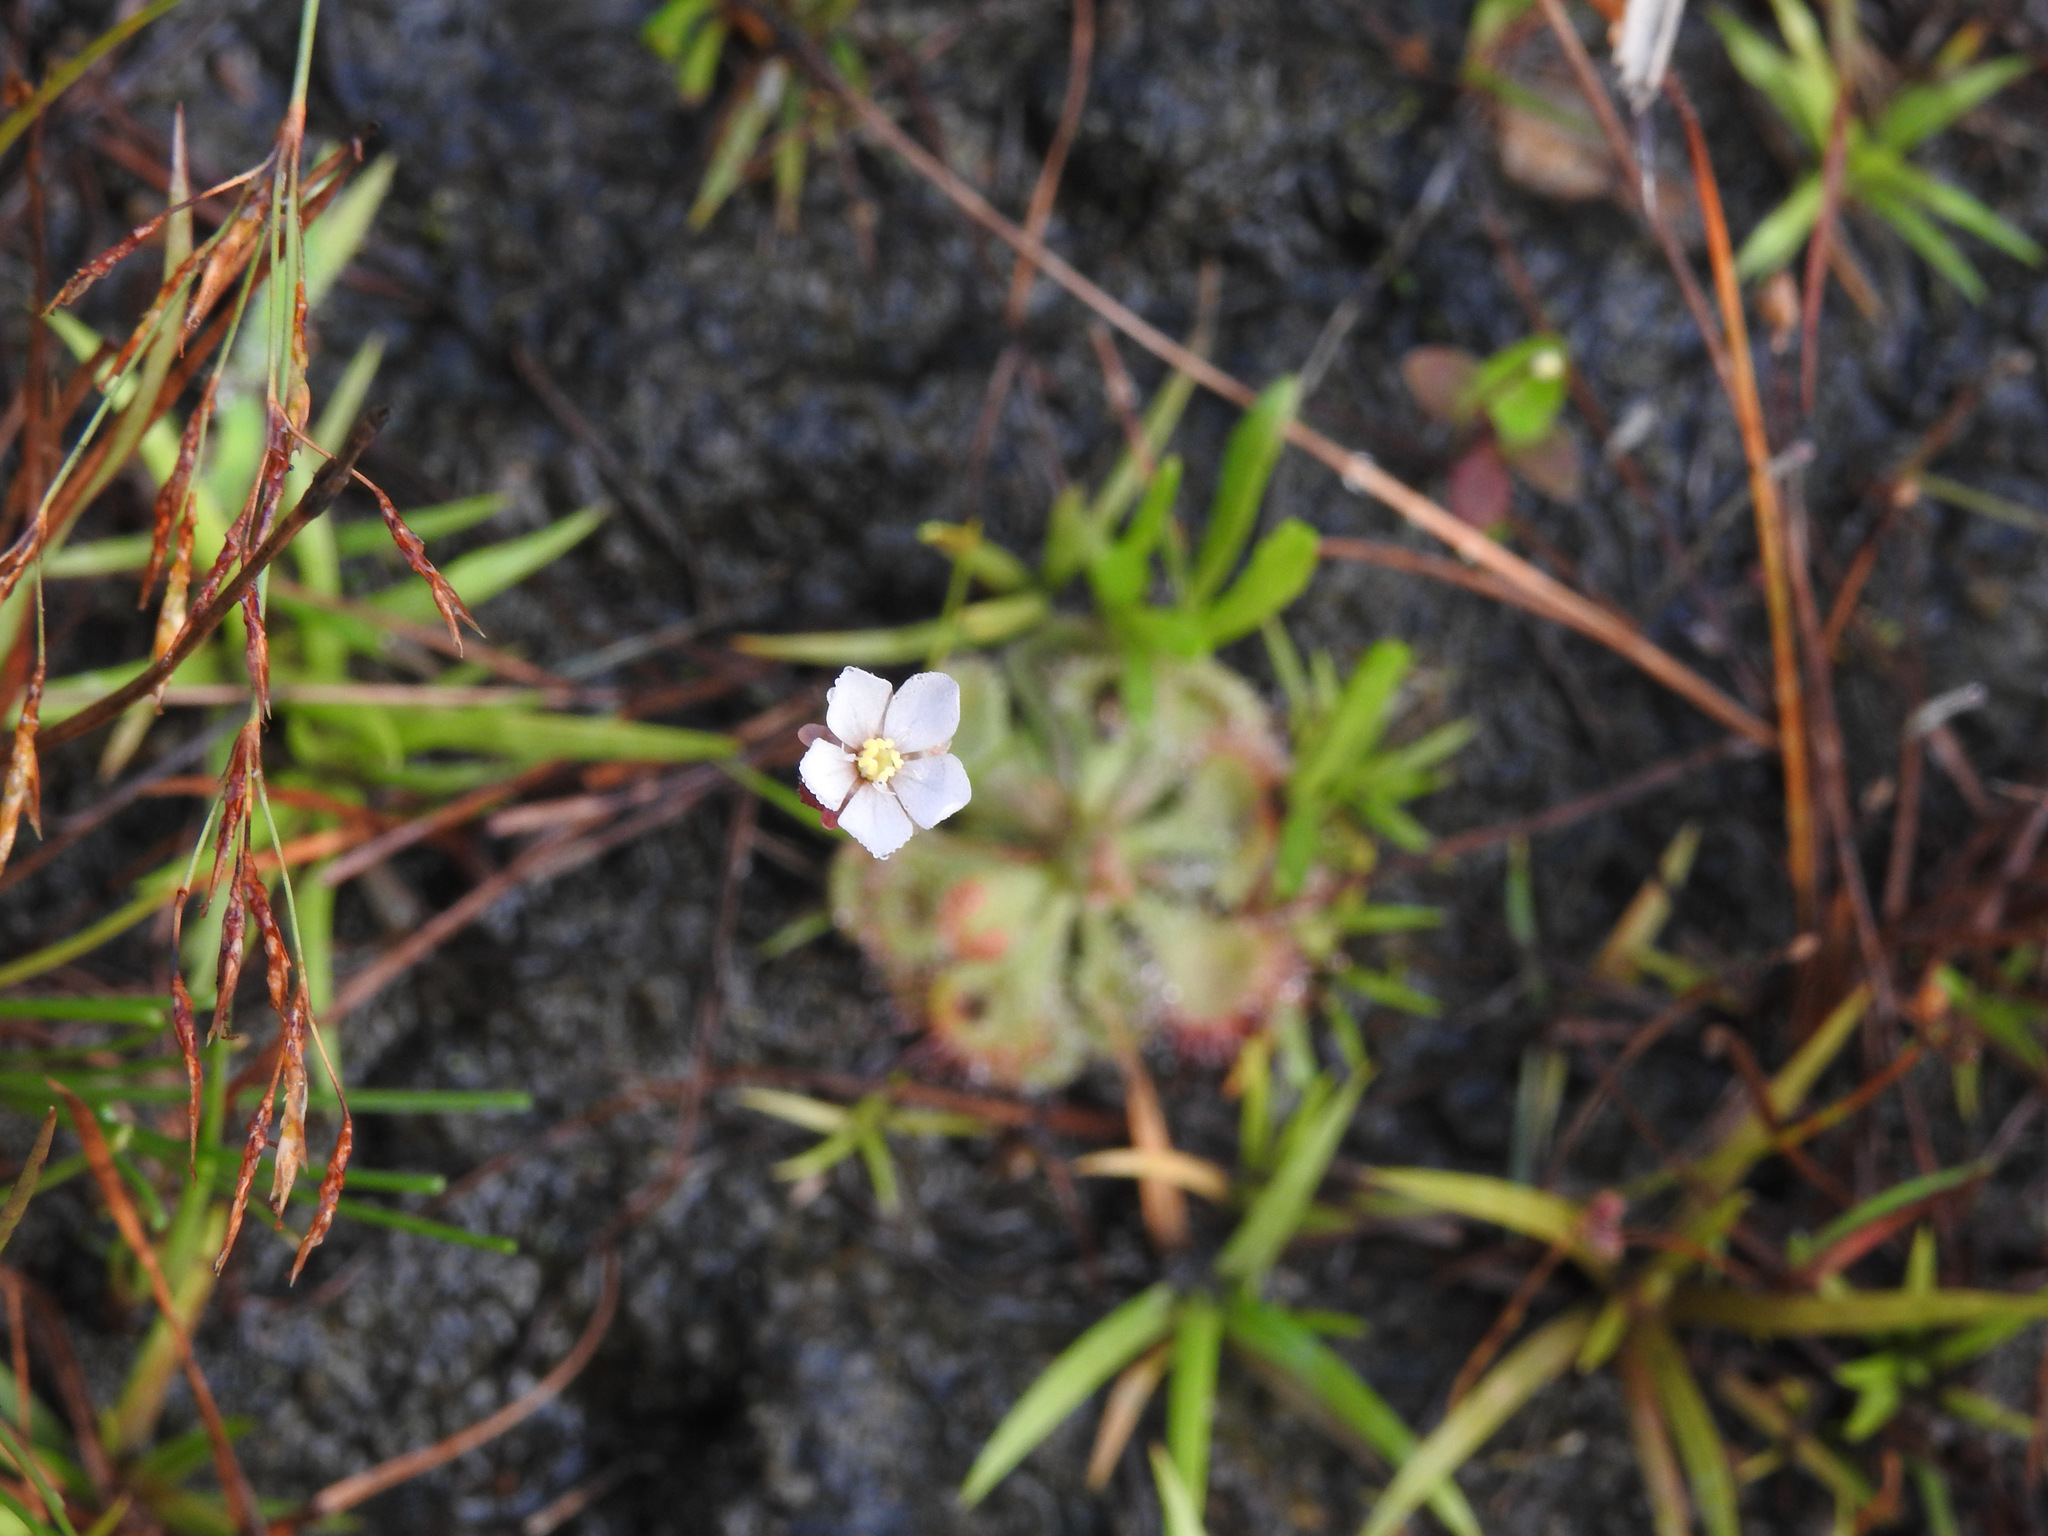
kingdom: Plantae
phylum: Tracheophyta
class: Magnoliopsida
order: Caryophyllales
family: Droseraceae
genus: Drosera
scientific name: Drosera spatulata
